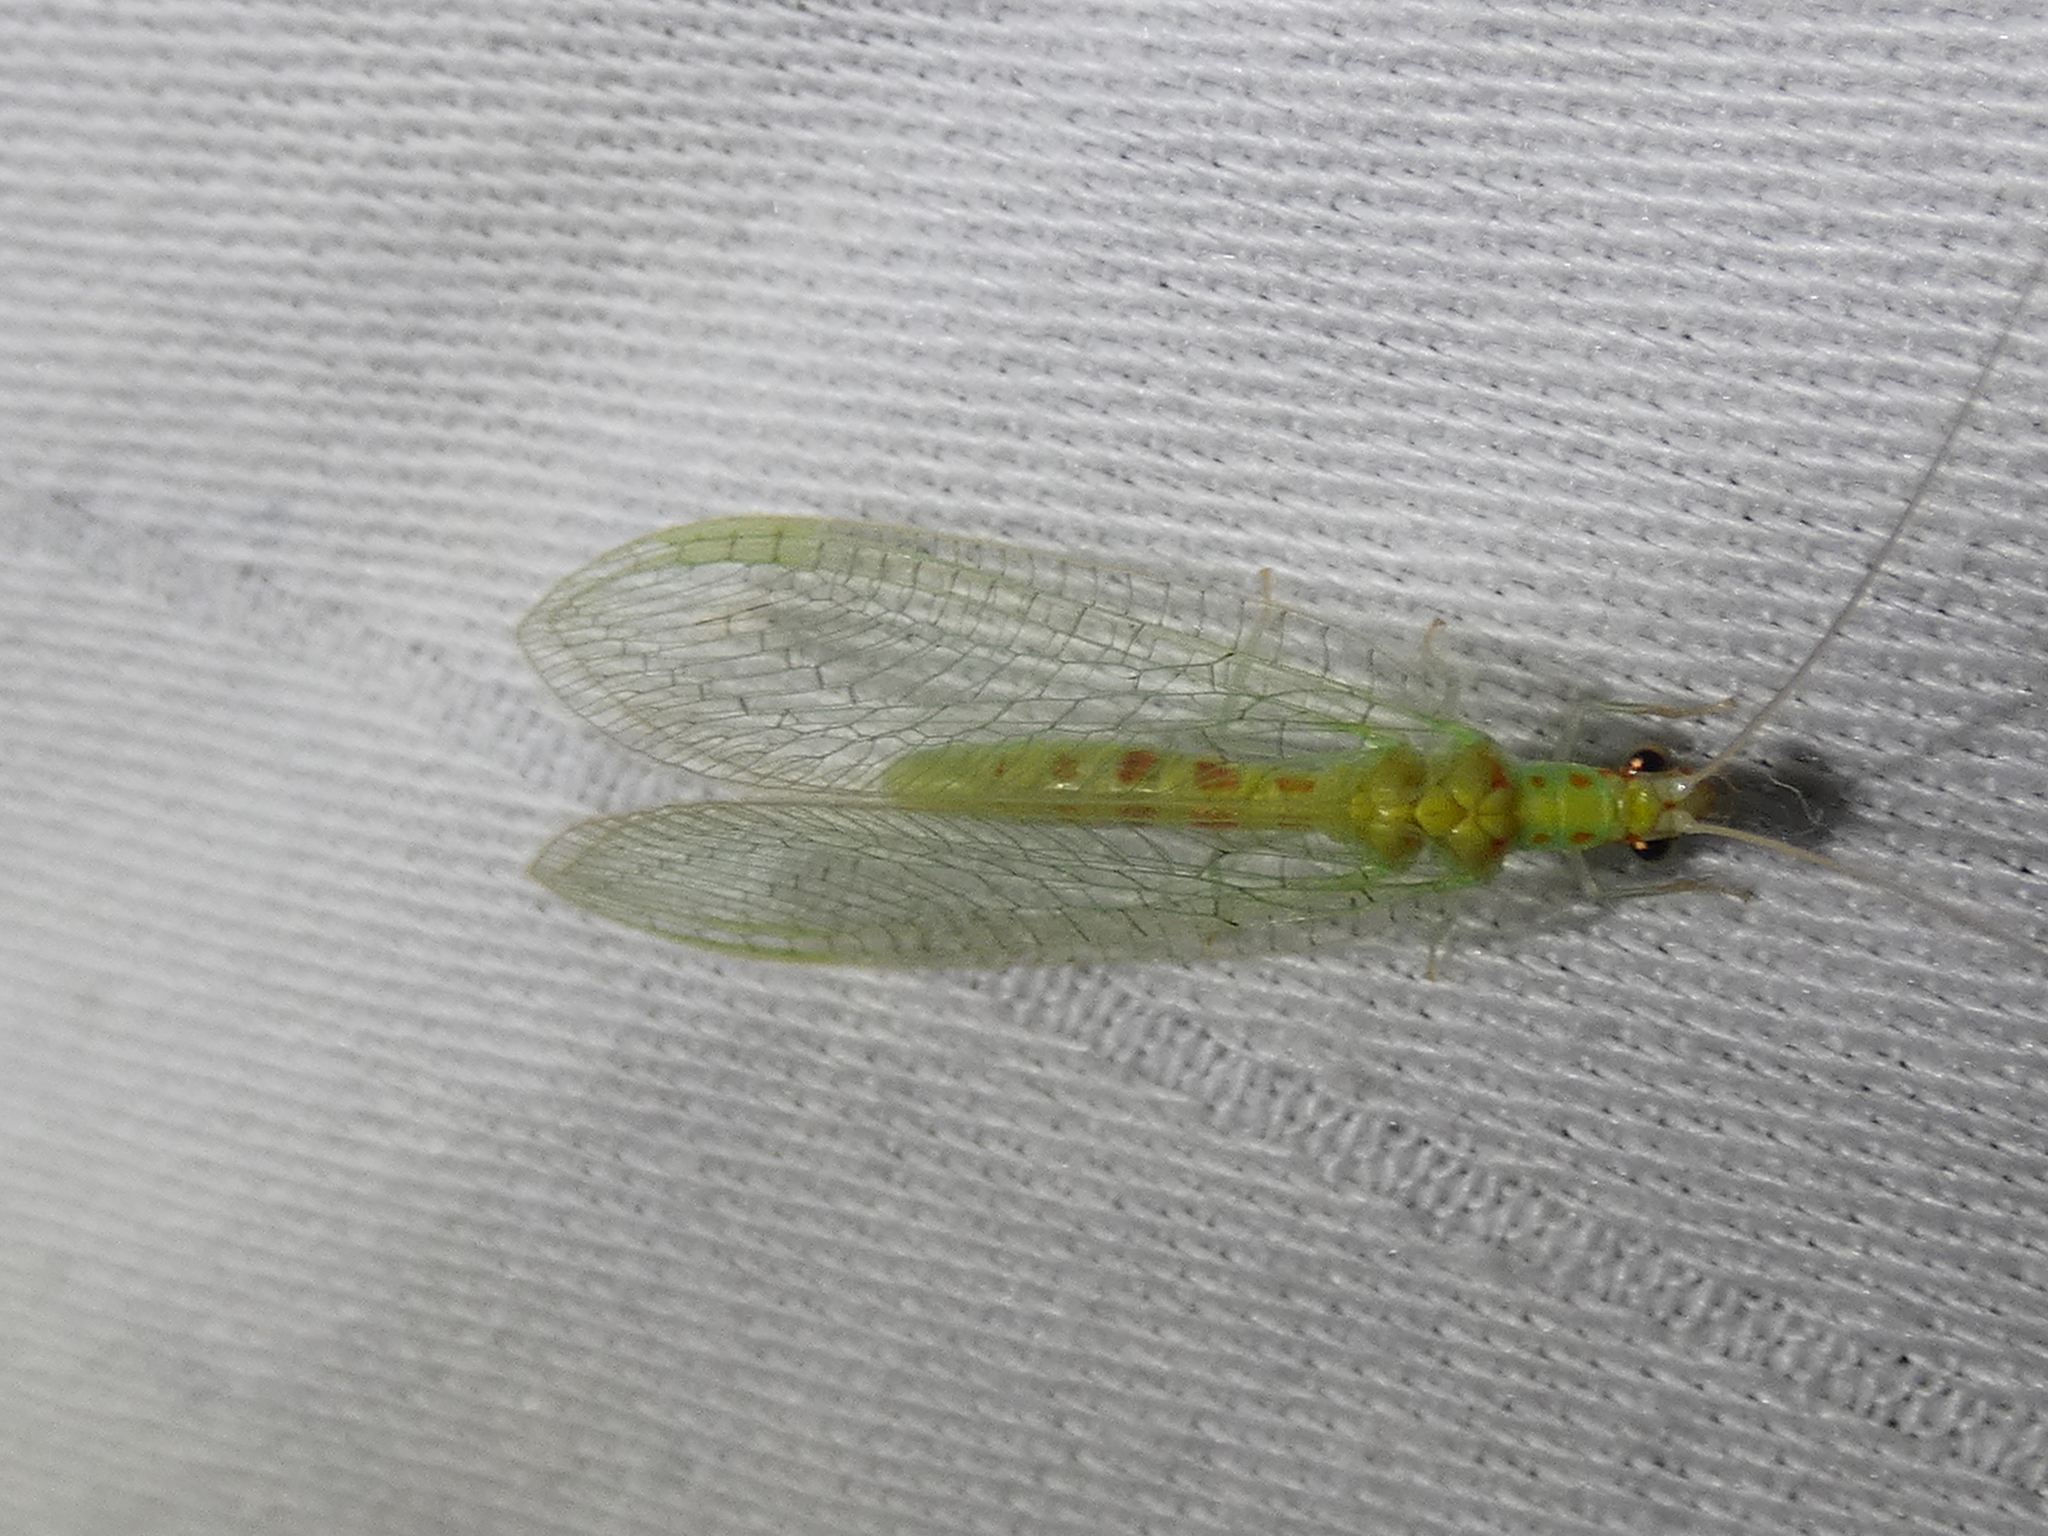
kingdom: Animalia
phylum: Arthropoda
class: Insecta
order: Neuroptera
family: Chrysopidae
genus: Chrysopa
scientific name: Chrysopa quadripunctata
